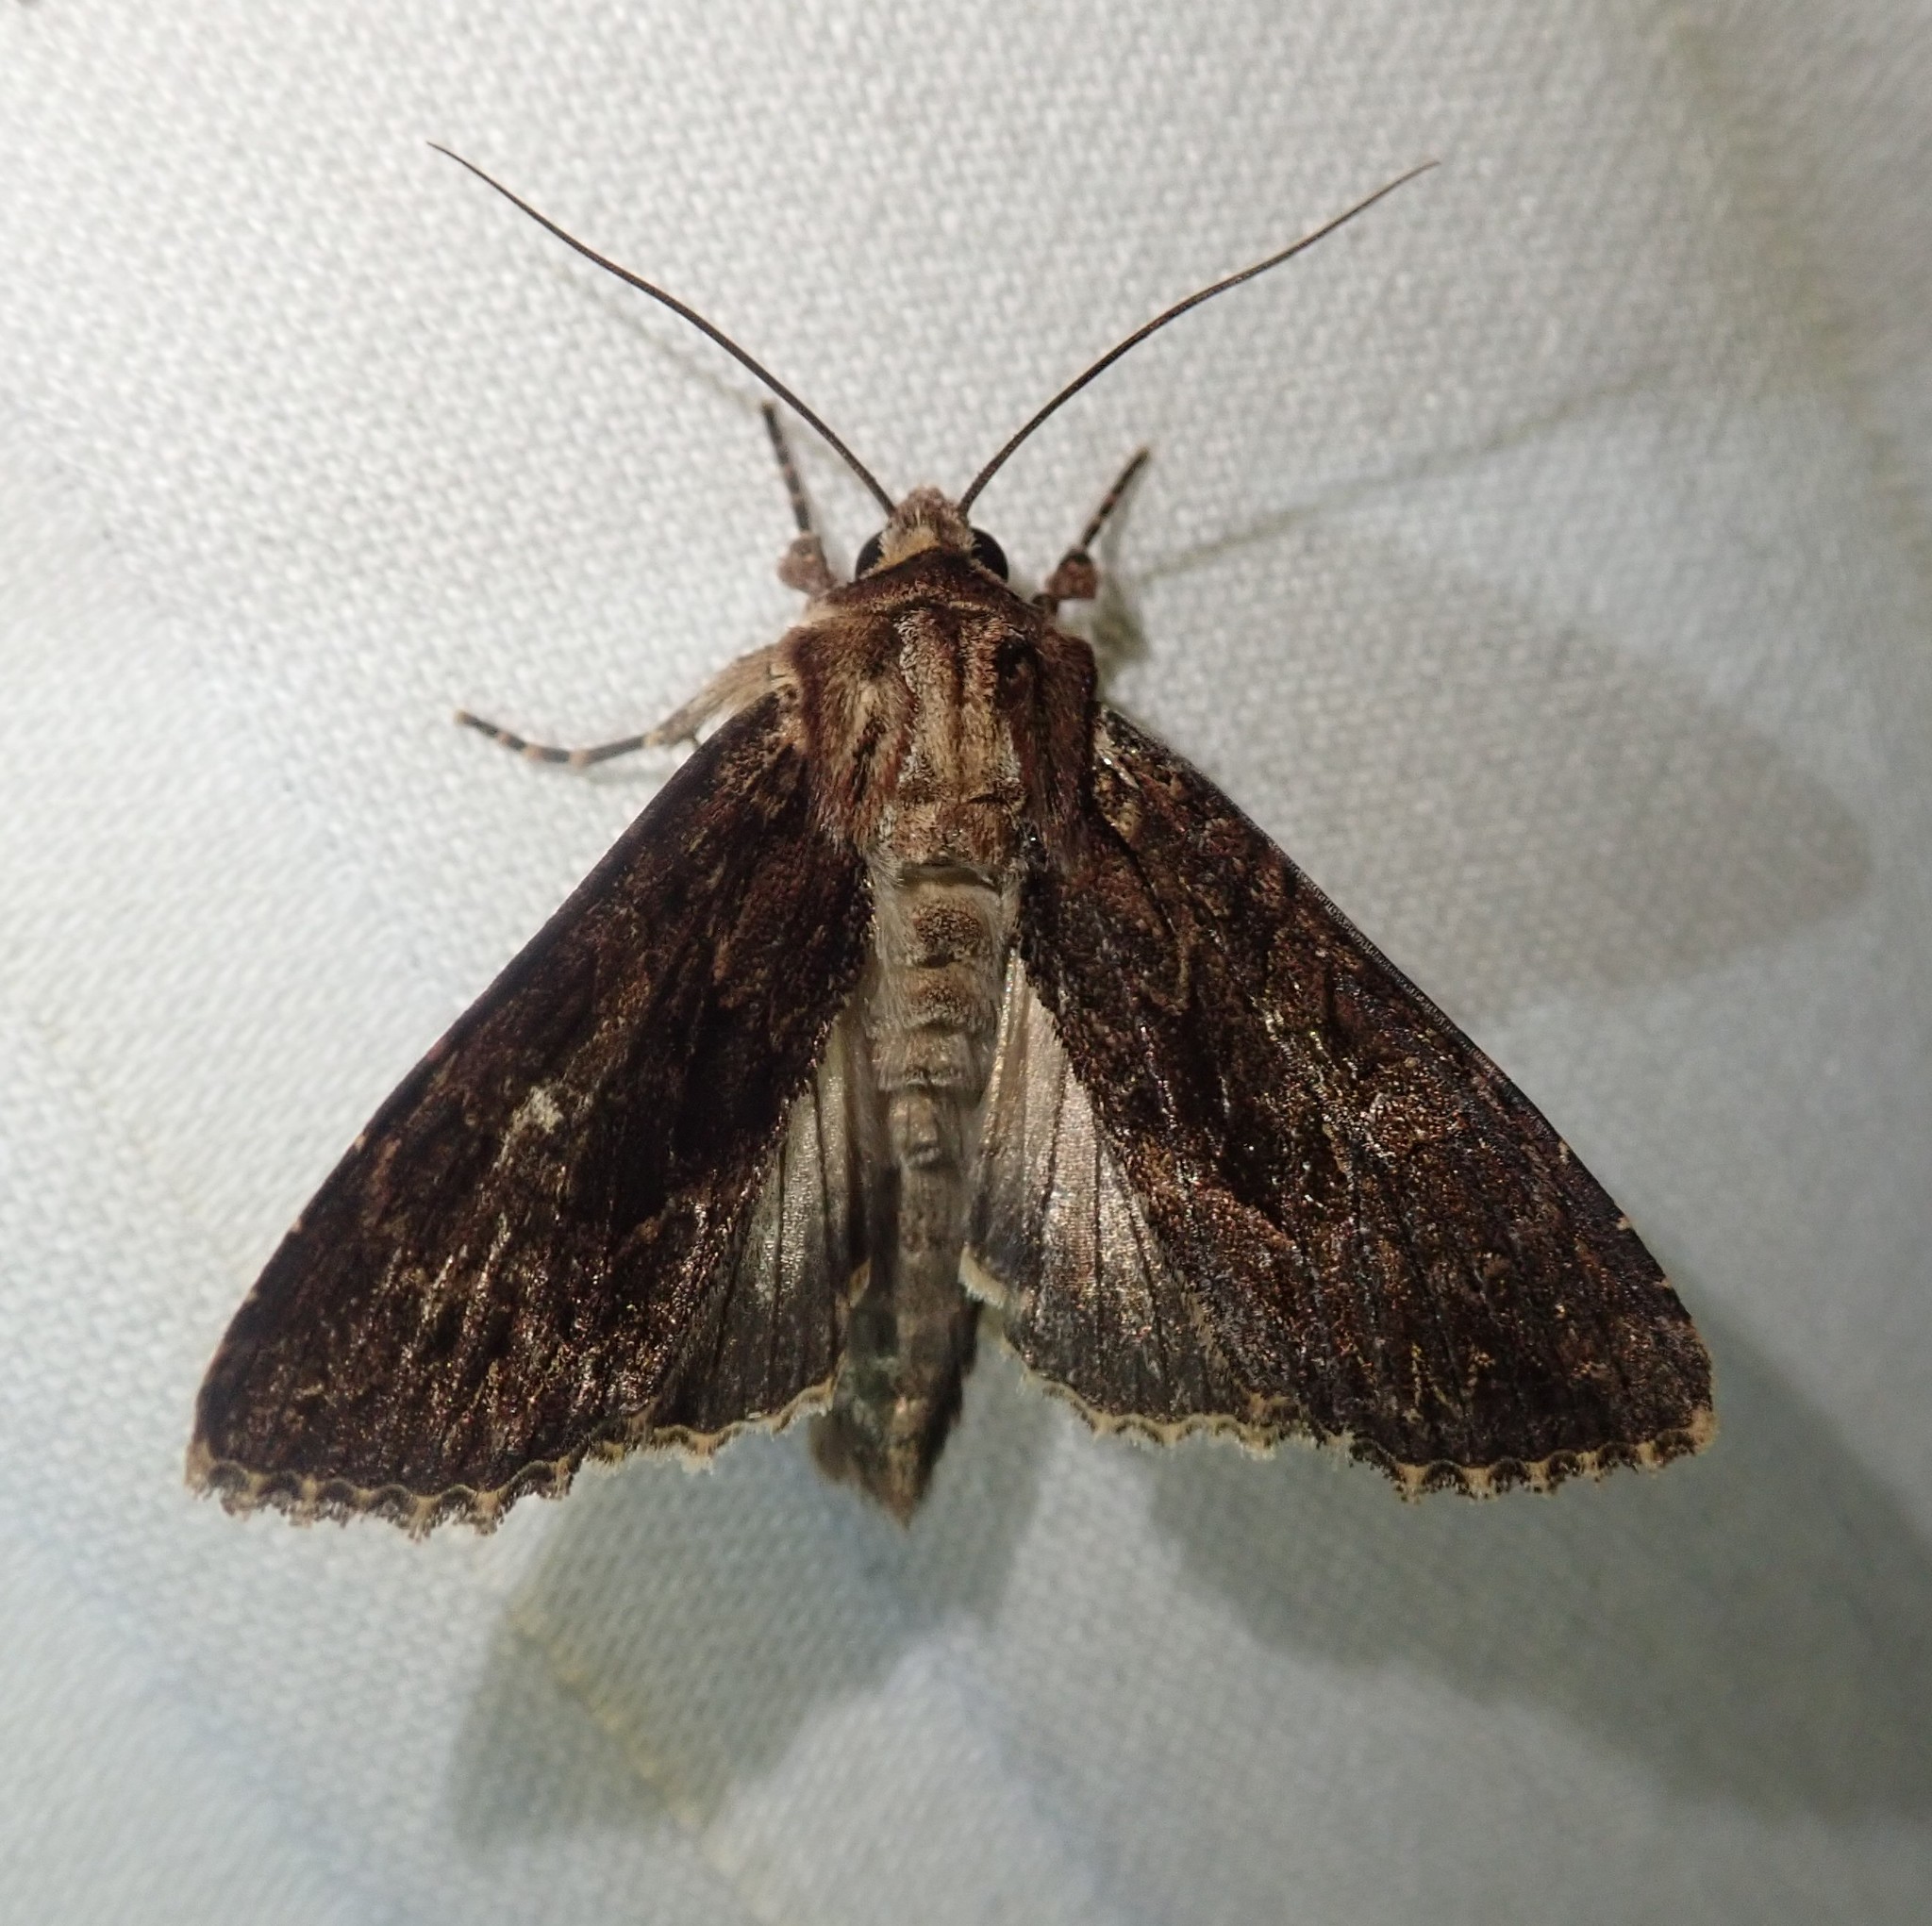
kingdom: Animalia
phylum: Arthropoda
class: Insecta
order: Lepidoptera
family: Noctuidae
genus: Apamea
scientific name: Apamea monoglypha
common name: Dark arches
